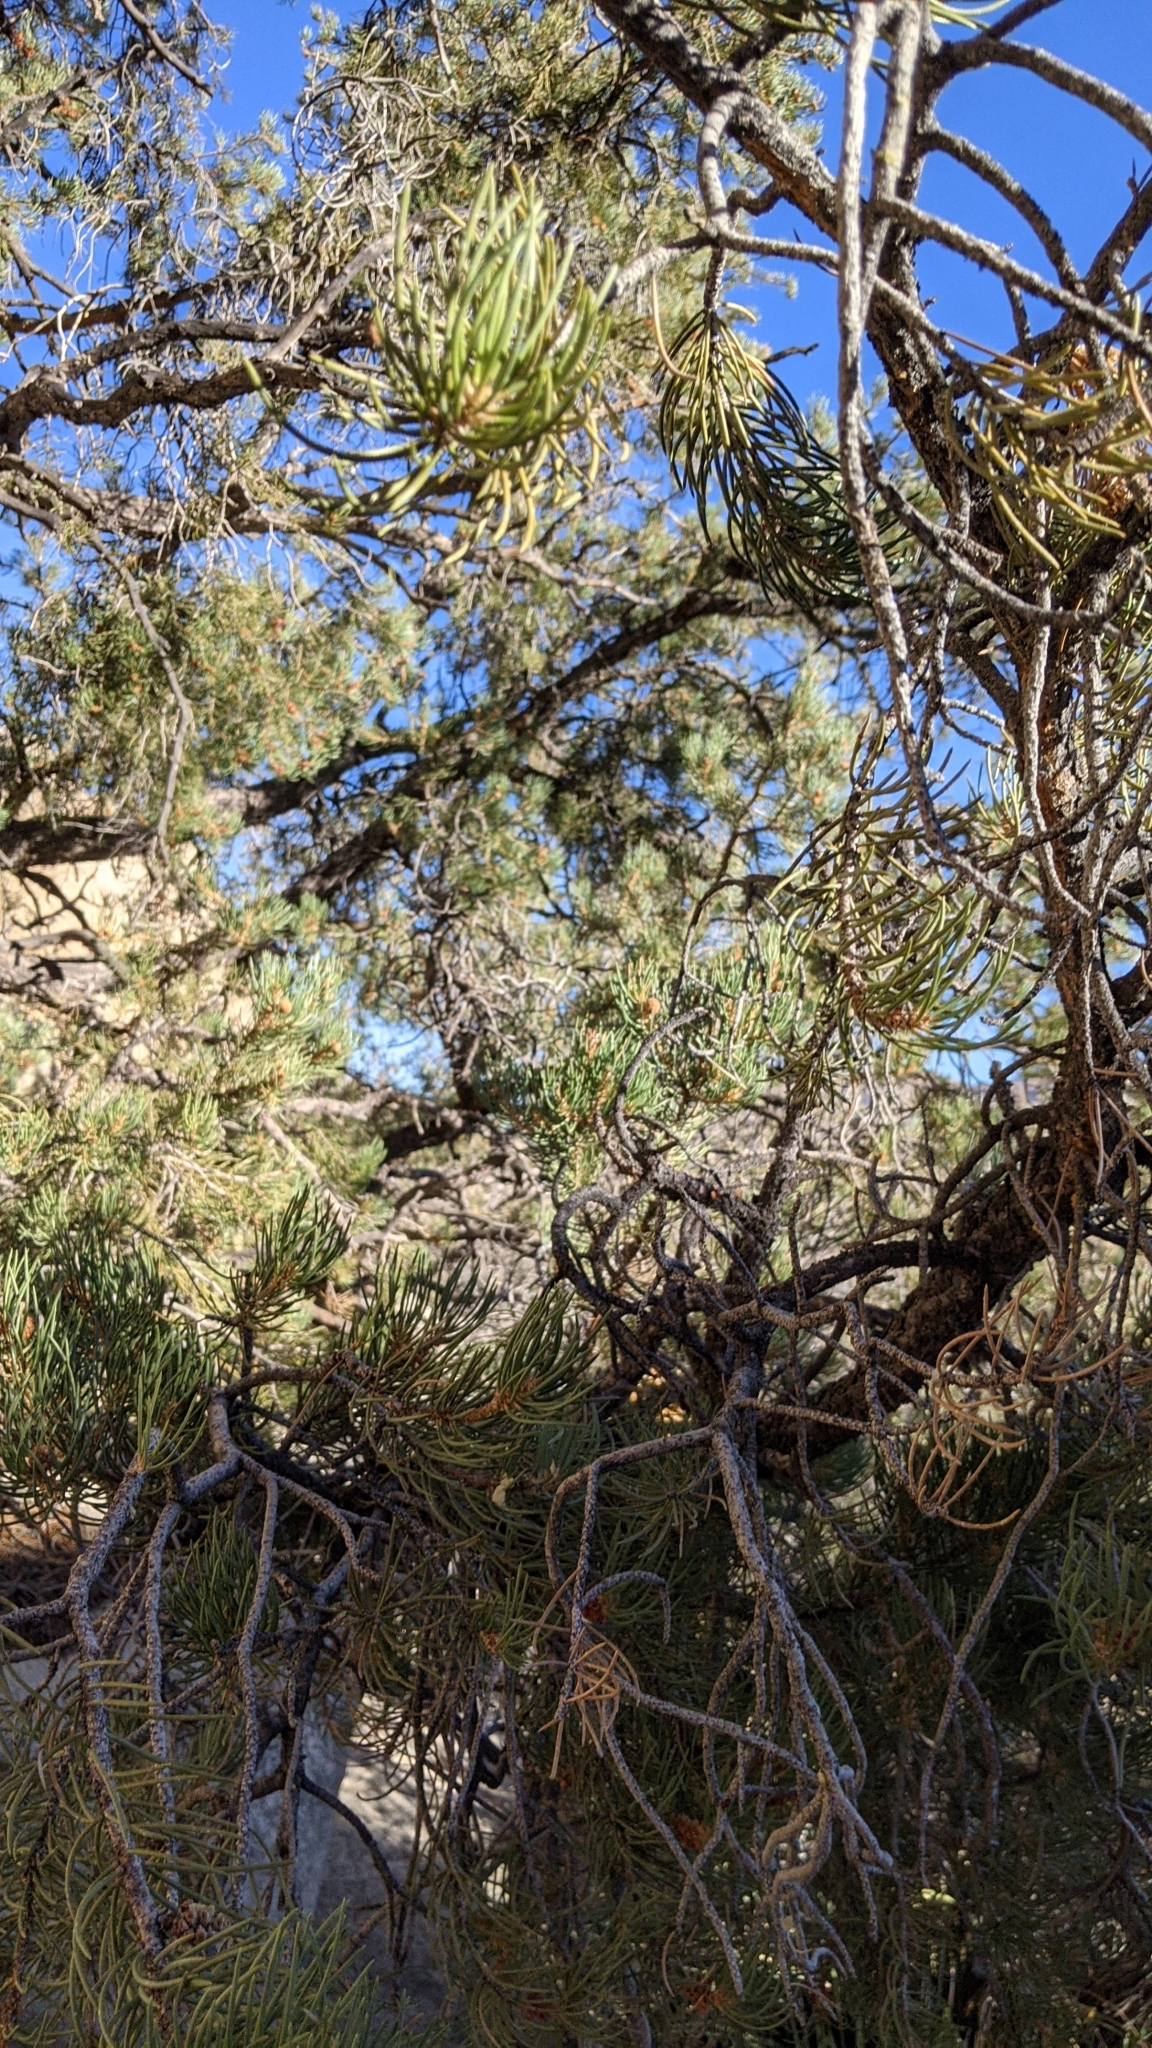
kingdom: Plantae
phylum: Tracheophyta
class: Pinopsida
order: Pinales
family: Pinaceae
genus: Pinus
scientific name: Pinus monophylla
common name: One-leaved nut pine
